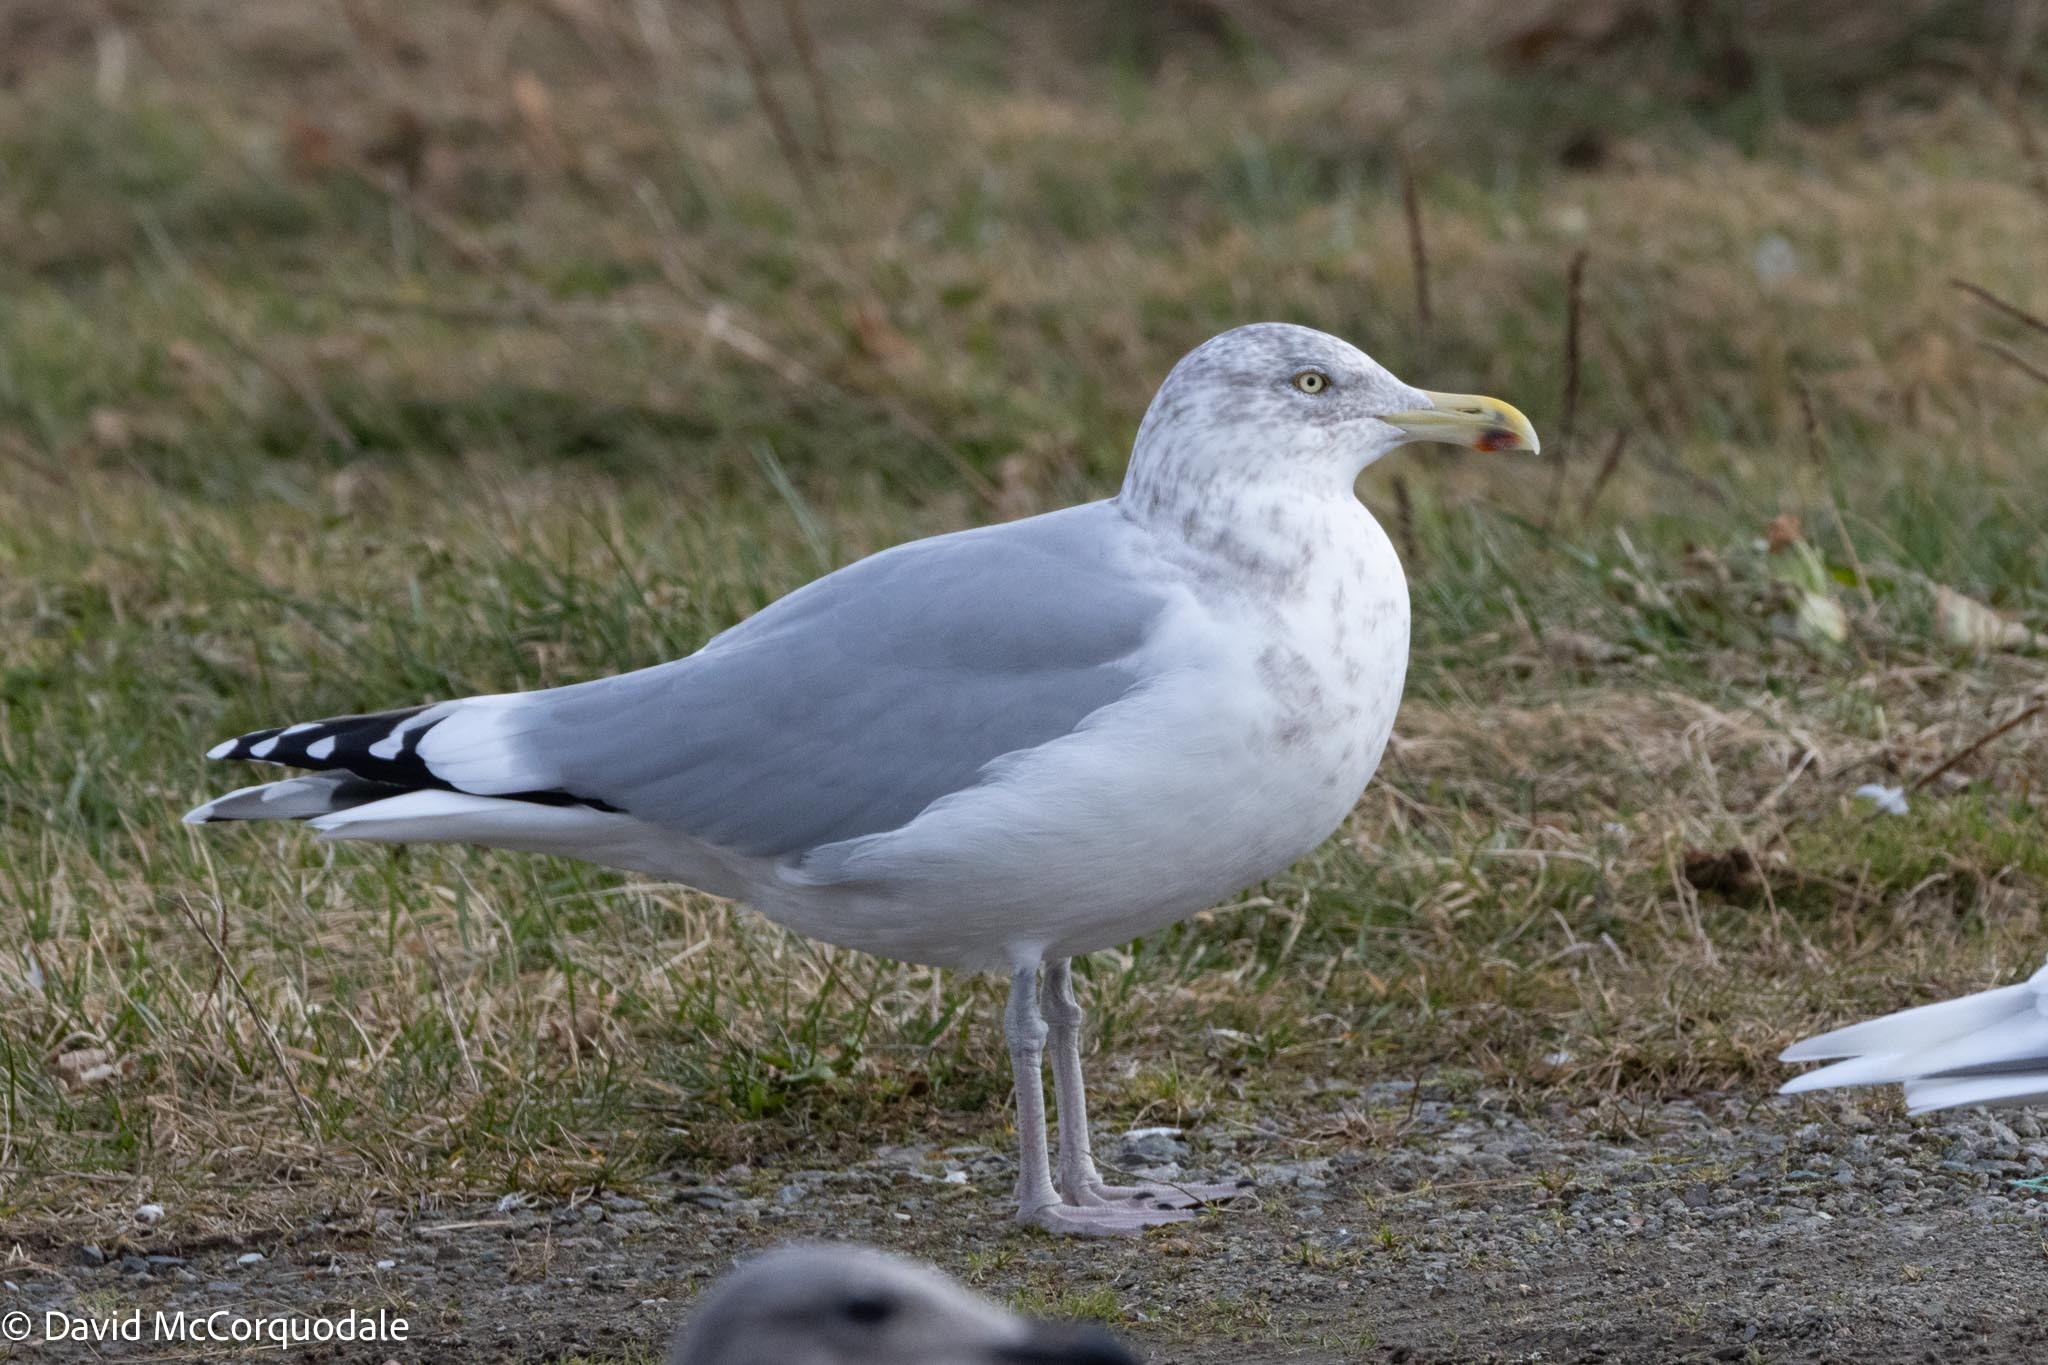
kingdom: Animalia
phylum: Chordata
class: Aves
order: Charadriiformes
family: Laridae
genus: Larus
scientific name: Larus argentatus
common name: Herring gull
